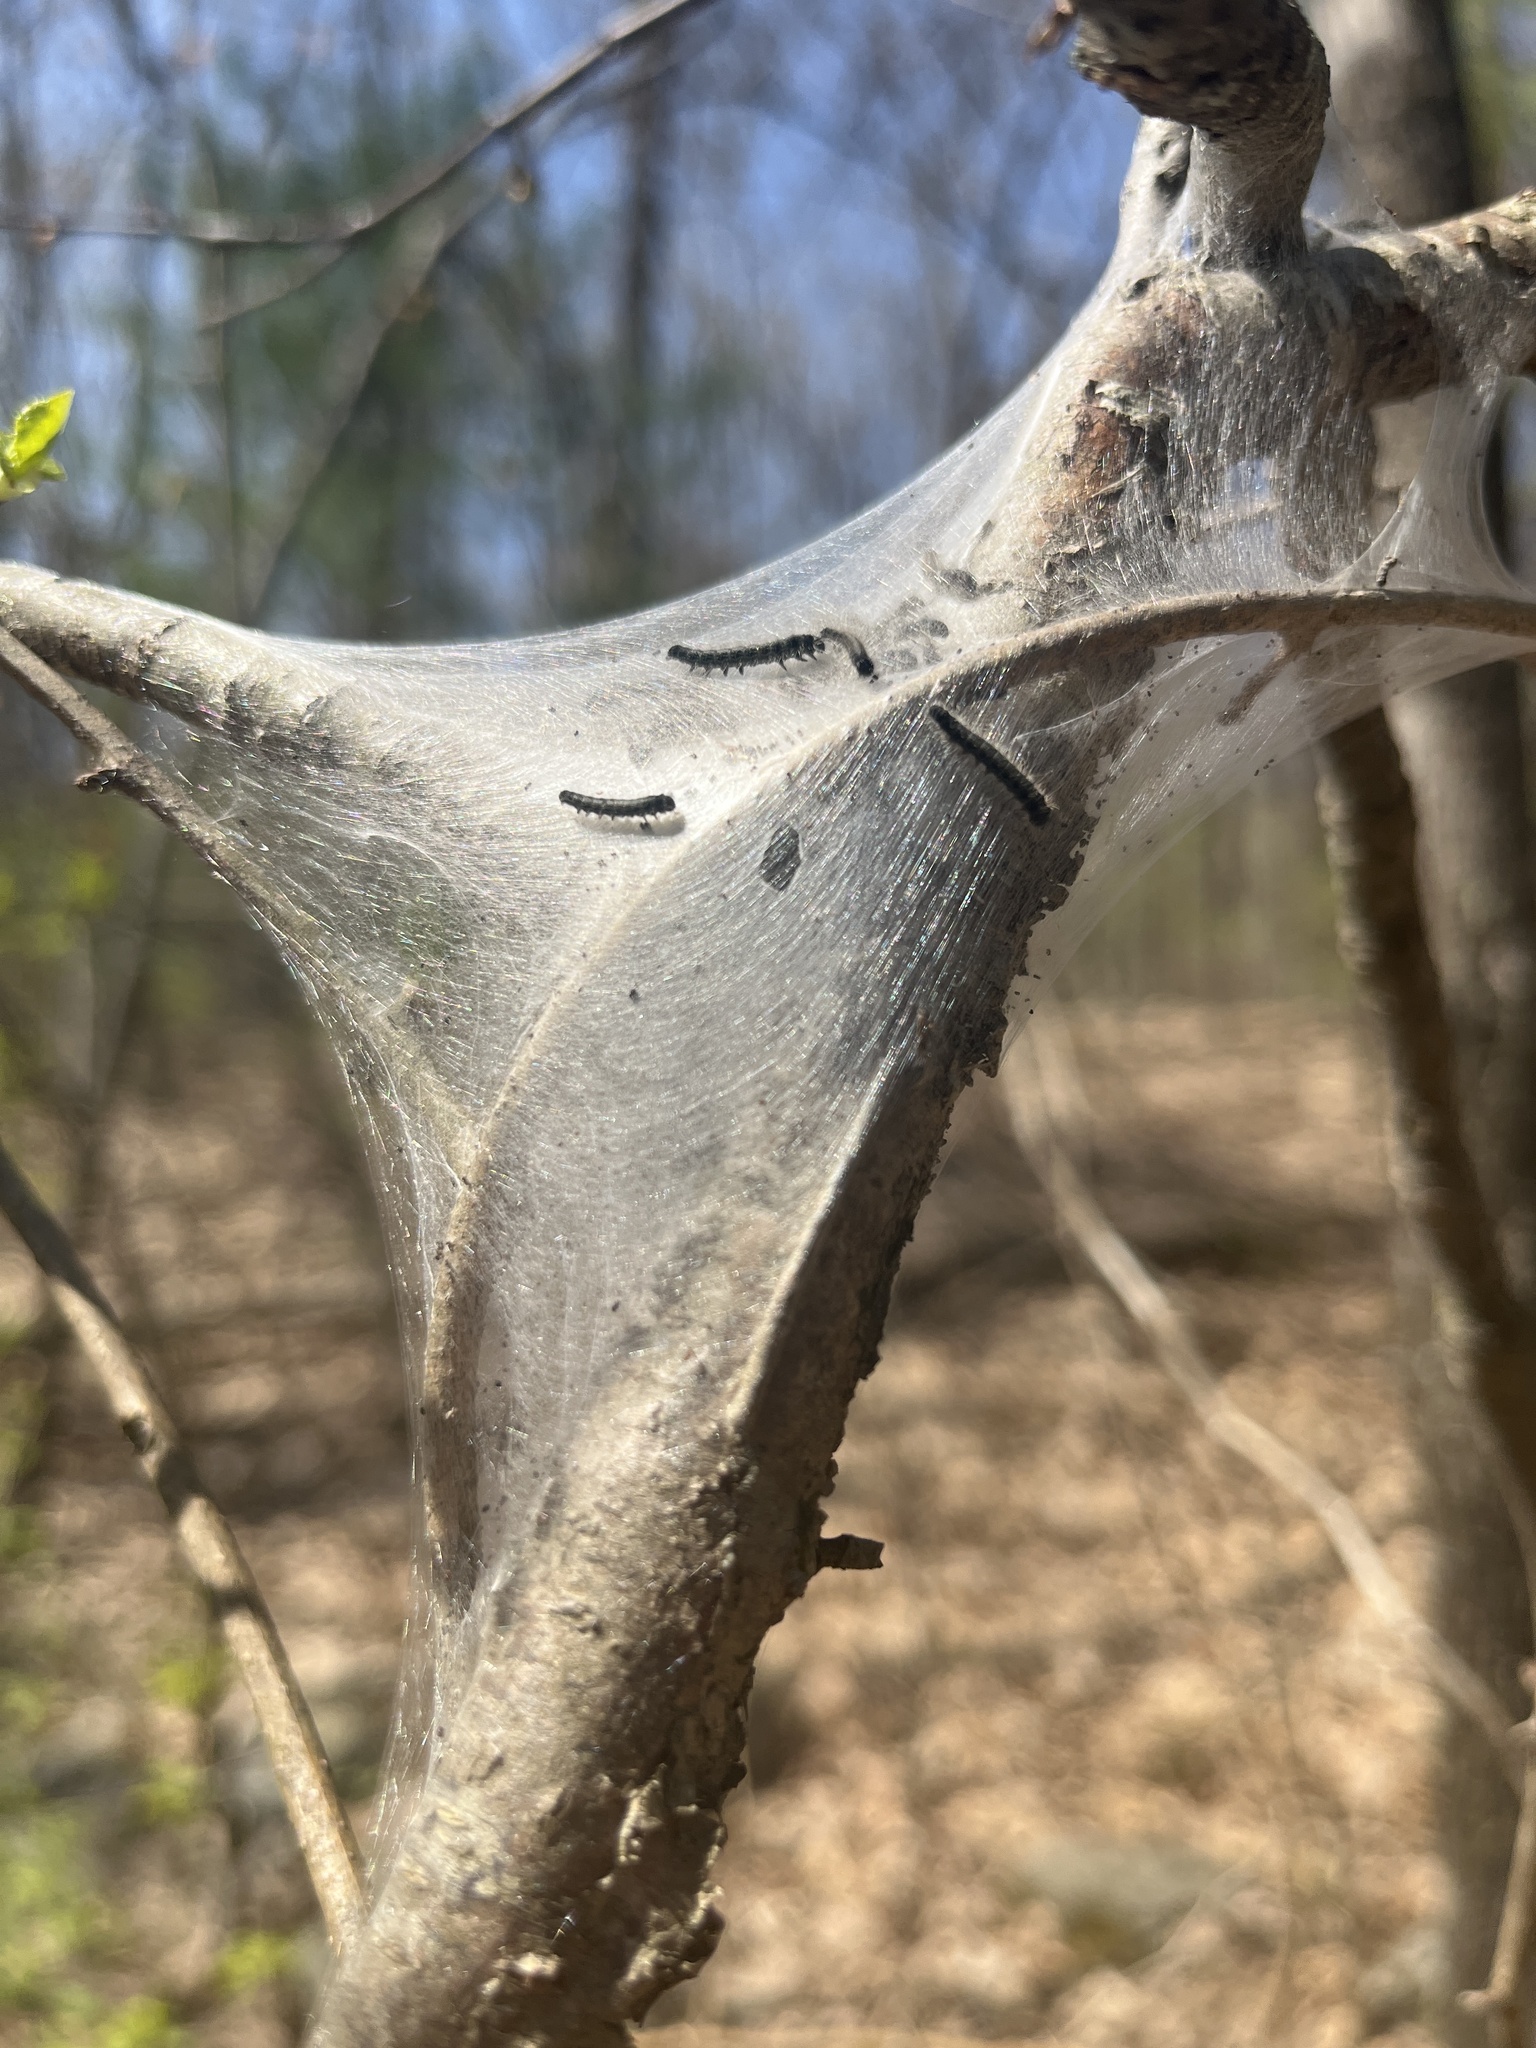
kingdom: Animalia
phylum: Arthropoda
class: Insecta
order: Lepidoptera
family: Lasiocampidae
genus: Malacosoma
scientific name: Malacosoma americana
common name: Eastern tent caterpillar moth
